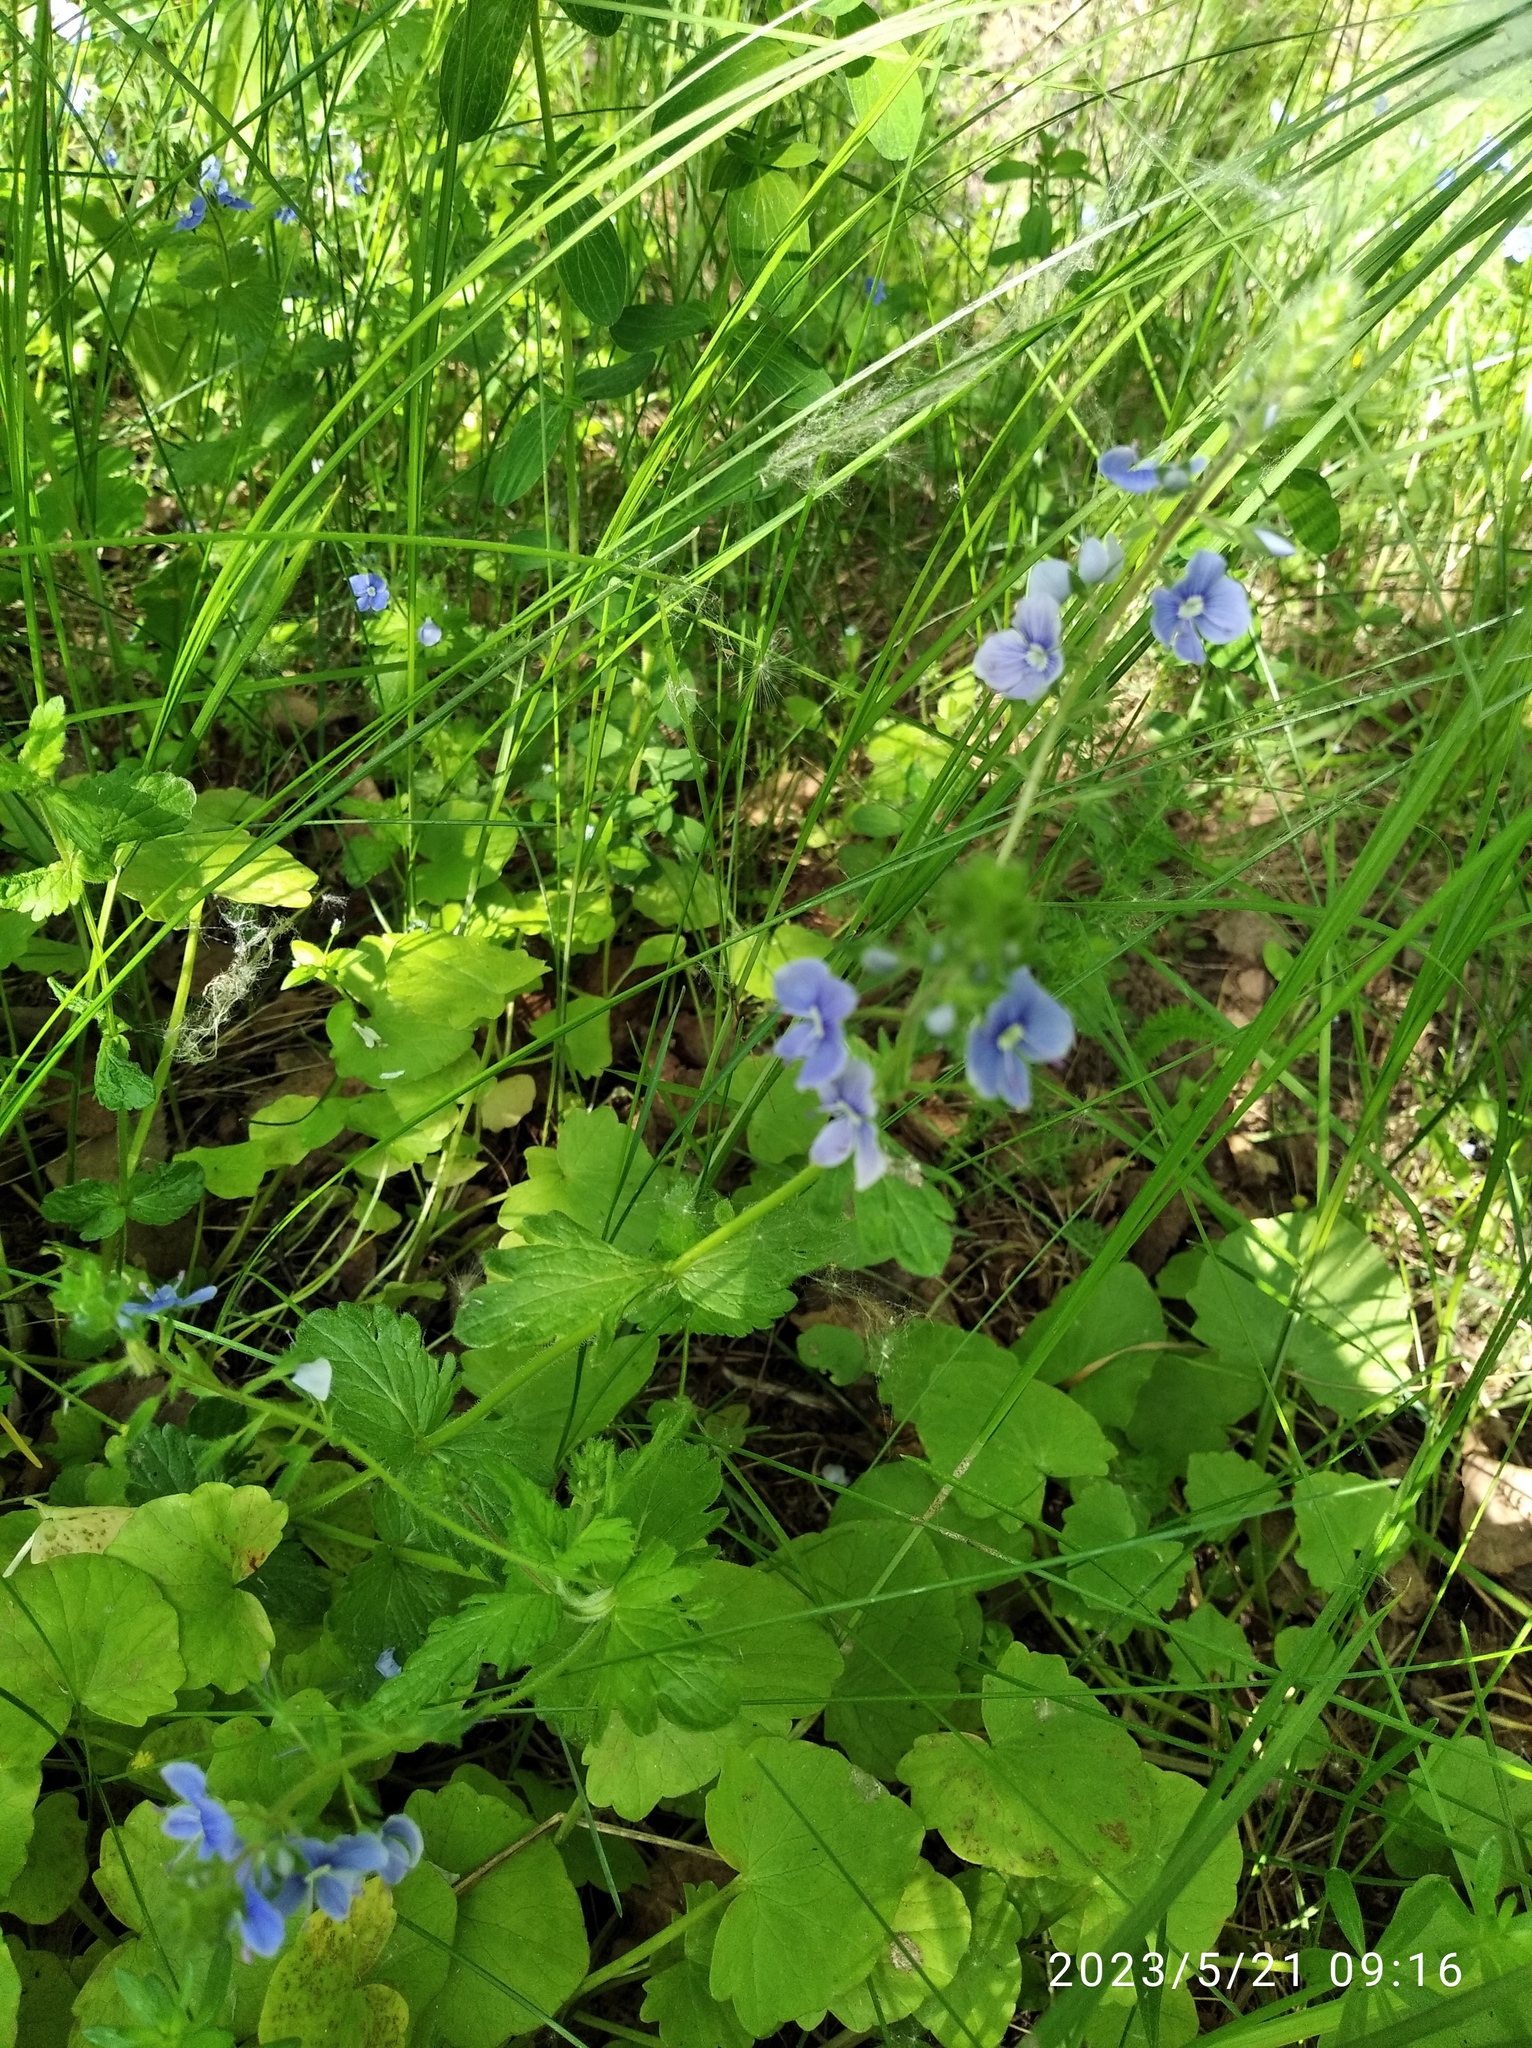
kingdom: Plantae
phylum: Tracheophyta
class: Magnoliopsida
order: Lamiales
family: Plantaginaceae
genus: Veronica
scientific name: Veronica chamaedrys
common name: Germander speedwell
